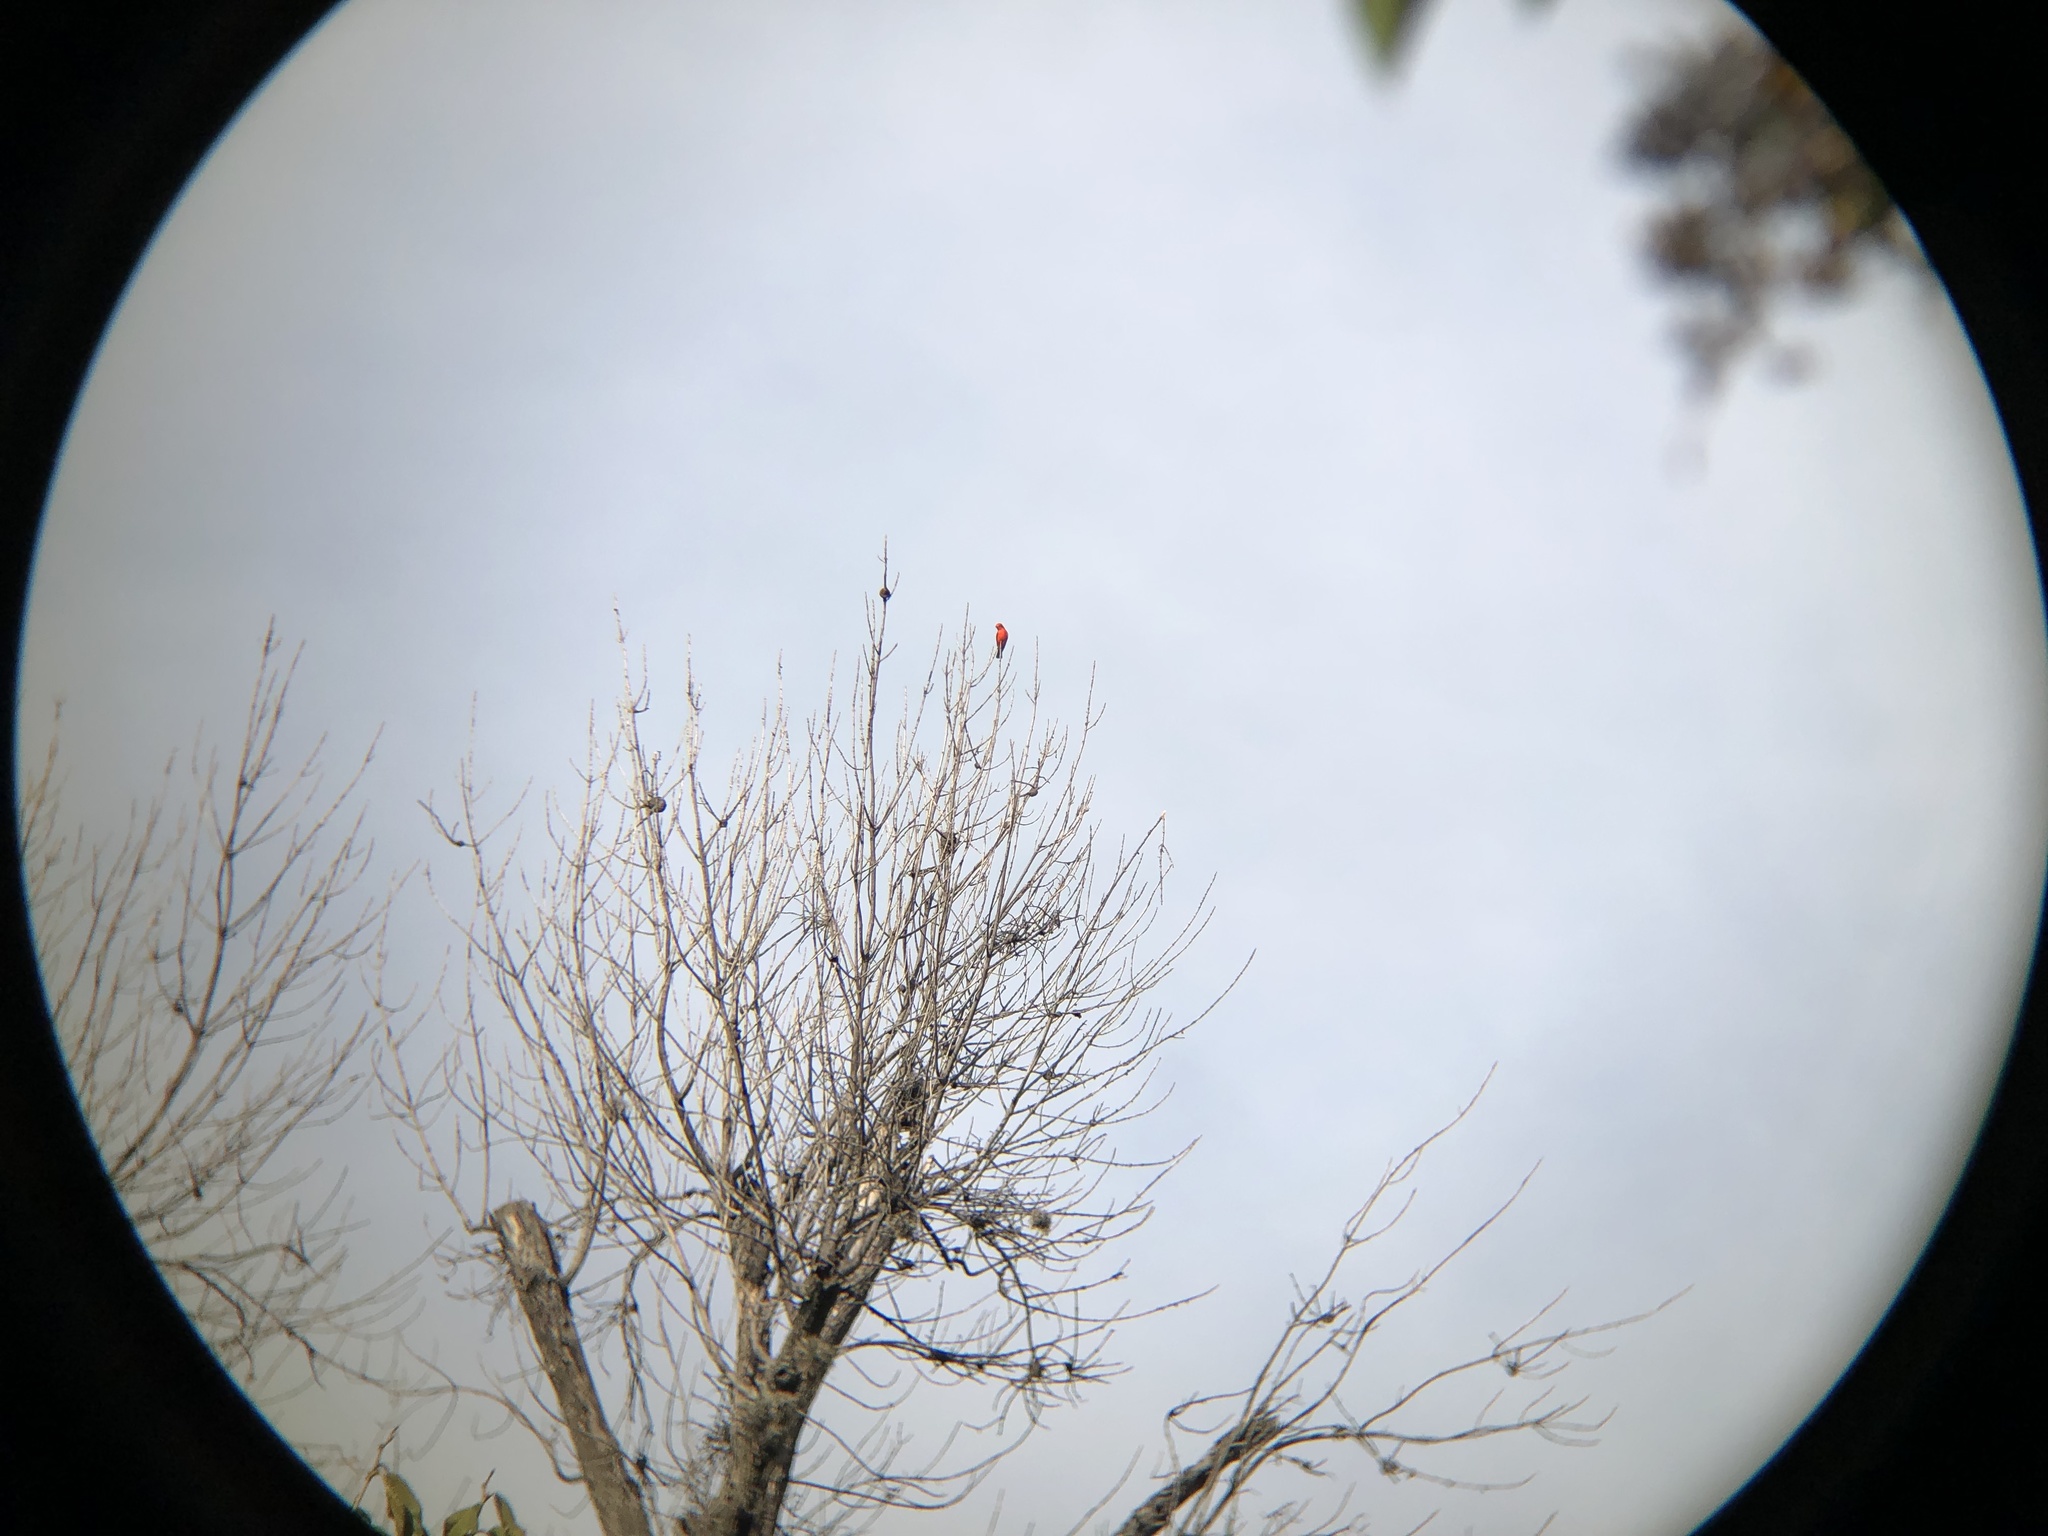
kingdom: Animalia
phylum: Chordata
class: Aves
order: Passeriformes
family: Tyrannidae
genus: Pyrocephalus
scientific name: Pyrocephalus rubinus
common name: Vermilion flycatcher
